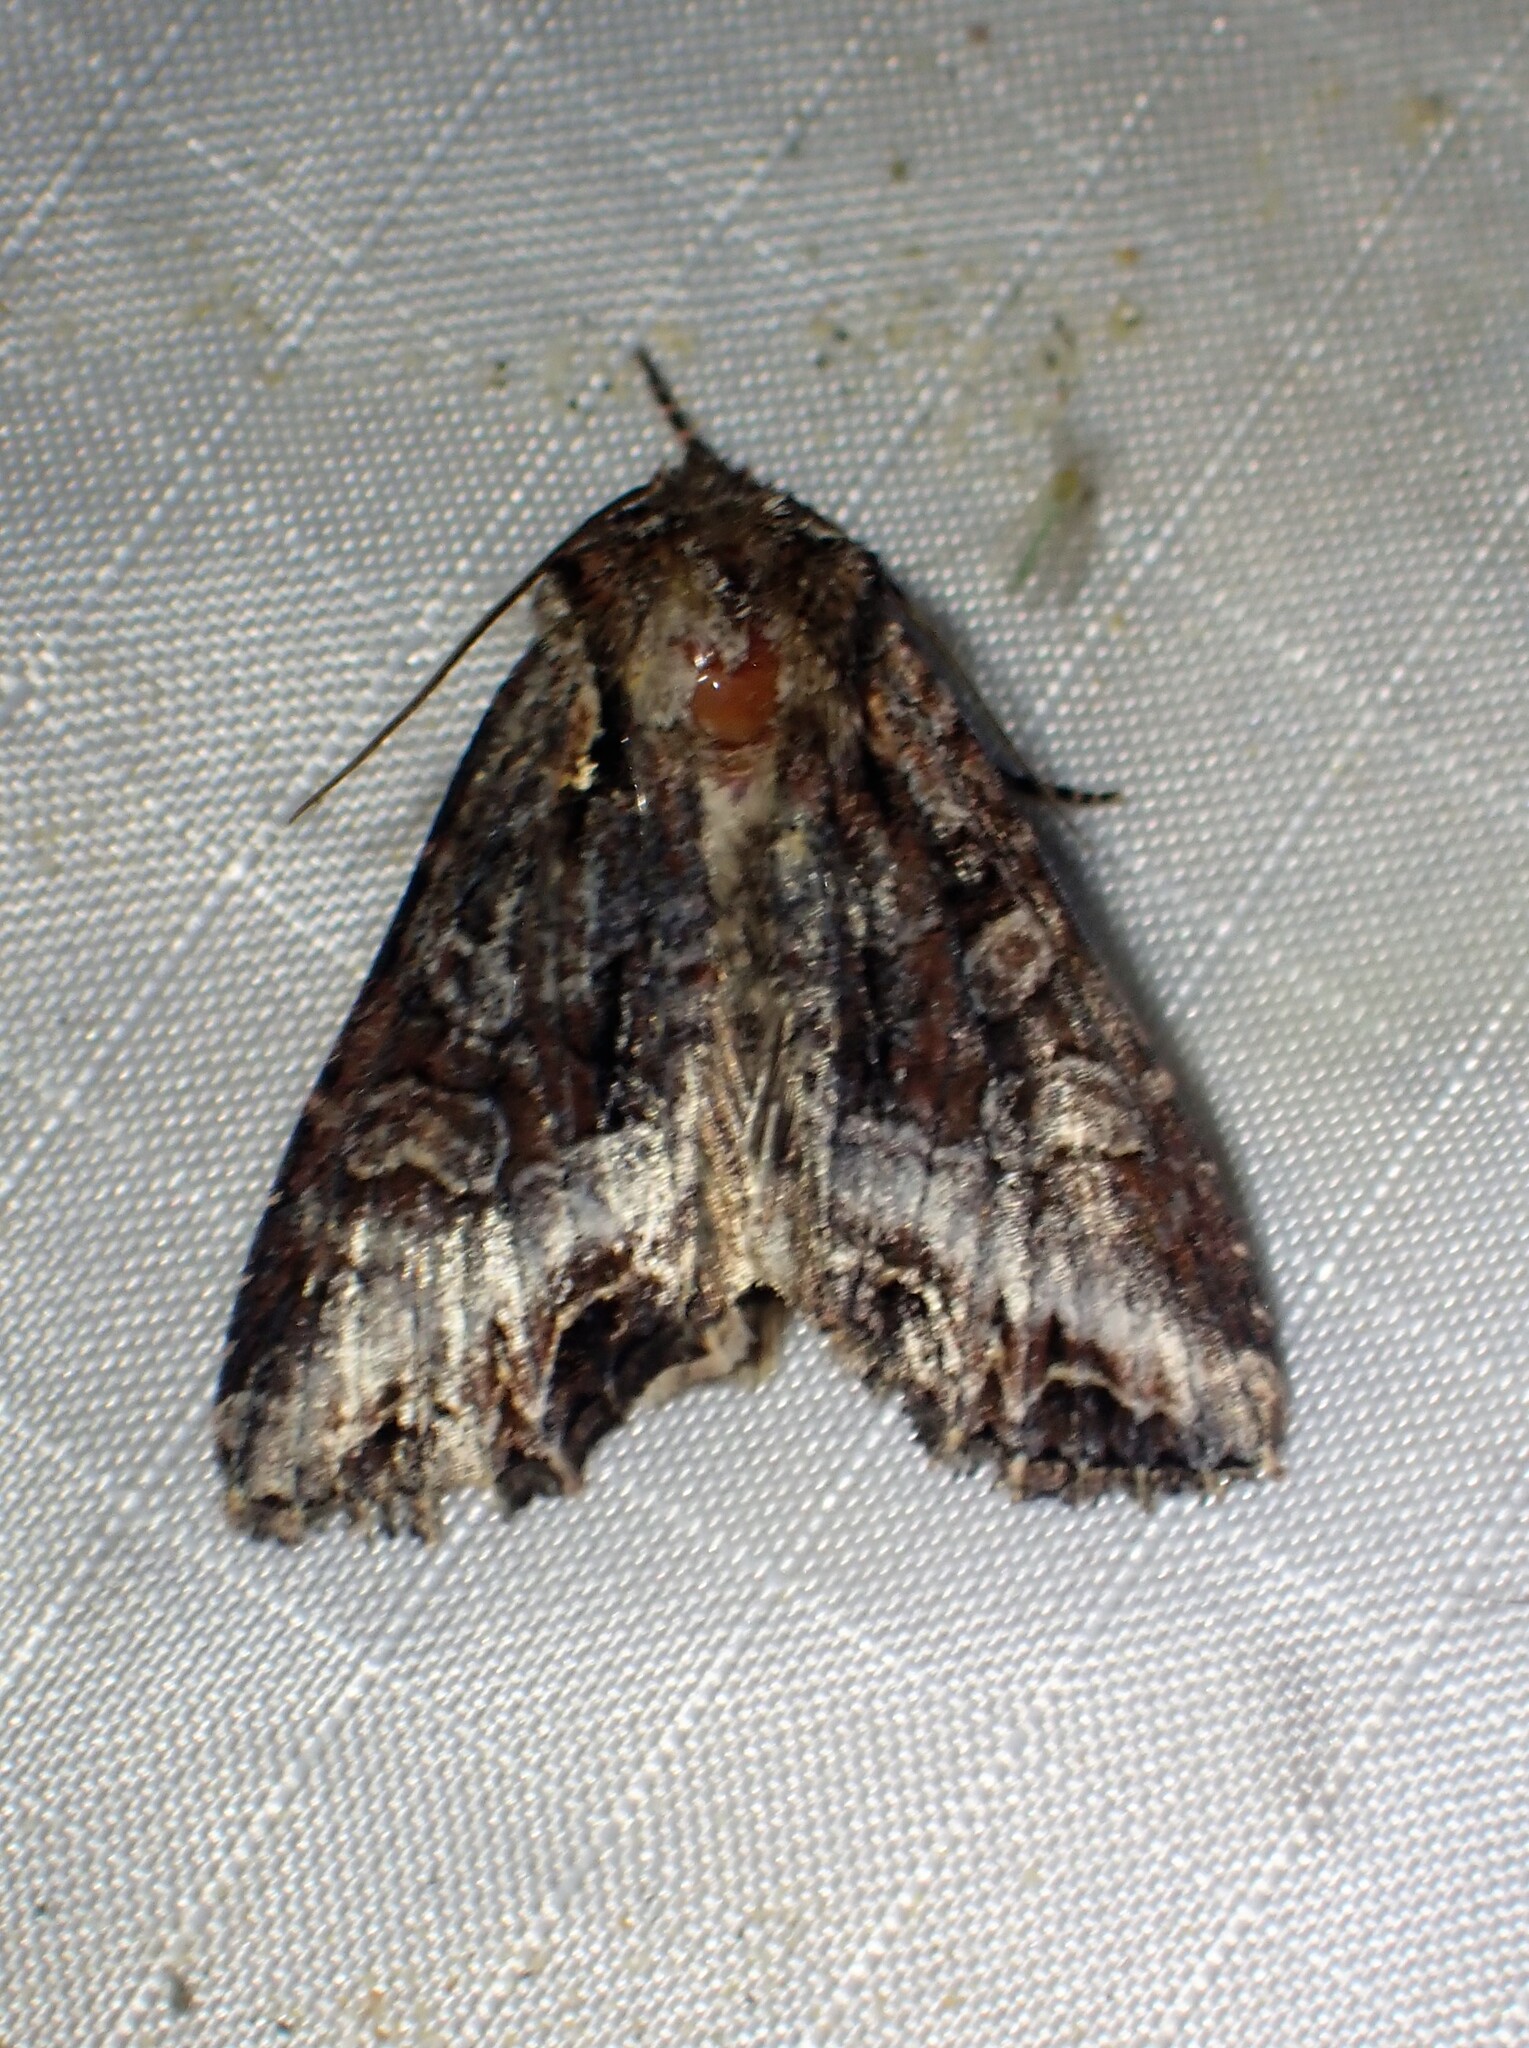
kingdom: Animalia
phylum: Arthropoda
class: Insecta
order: Lepidoptera
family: Noctuidae
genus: Lacanobia
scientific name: Lacanobia grandis
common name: Grand arches moth
